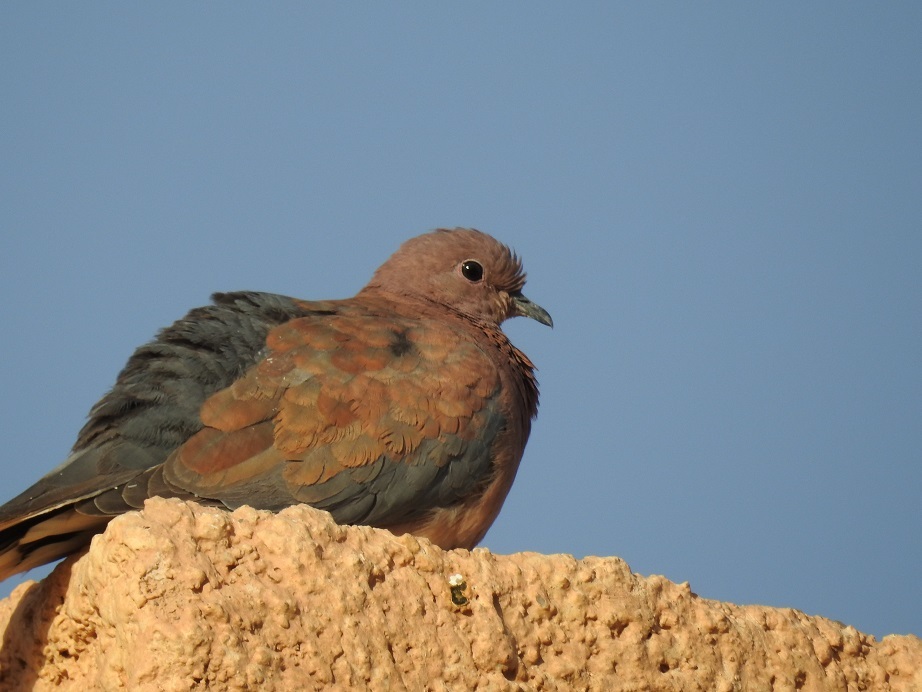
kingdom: Animalia
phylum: Chordata
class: Aves
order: Columbiformes
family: Columbidae
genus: Spilopelia
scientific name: Spilopelia senegalensis
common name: Laughing dove
